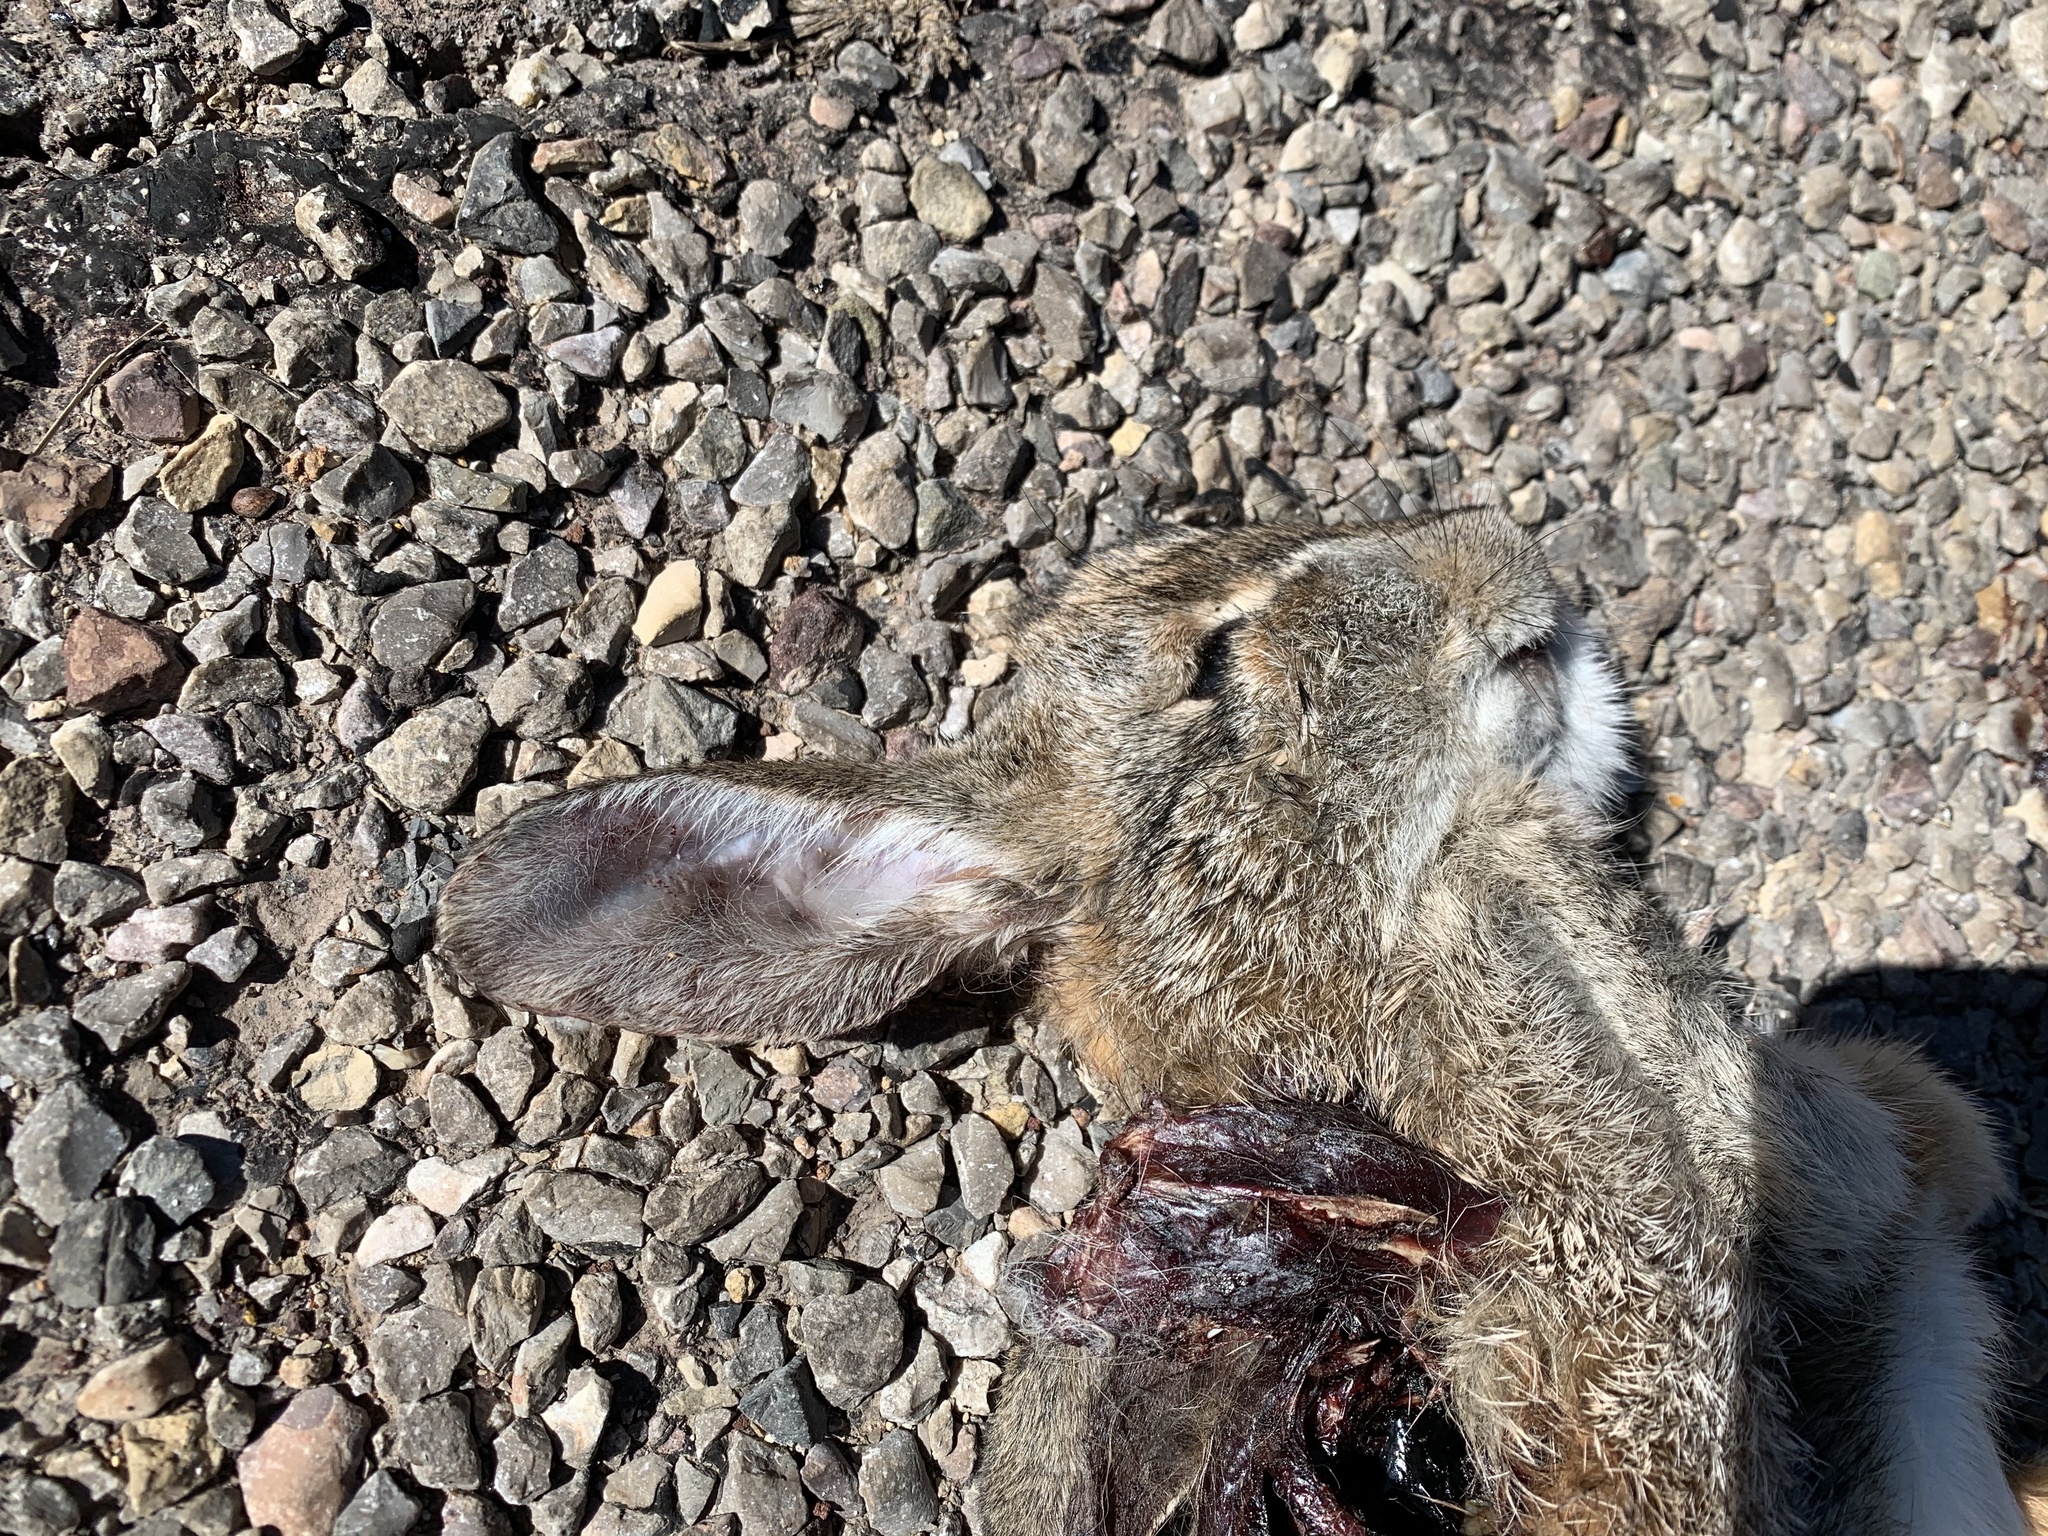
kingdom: Animalia
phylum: Chordata
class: Mammalia
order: Lagomorpha
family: Leporidae
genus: Sylvilagus
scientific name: Sylvilagus audubonii
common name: Desert cottontail
